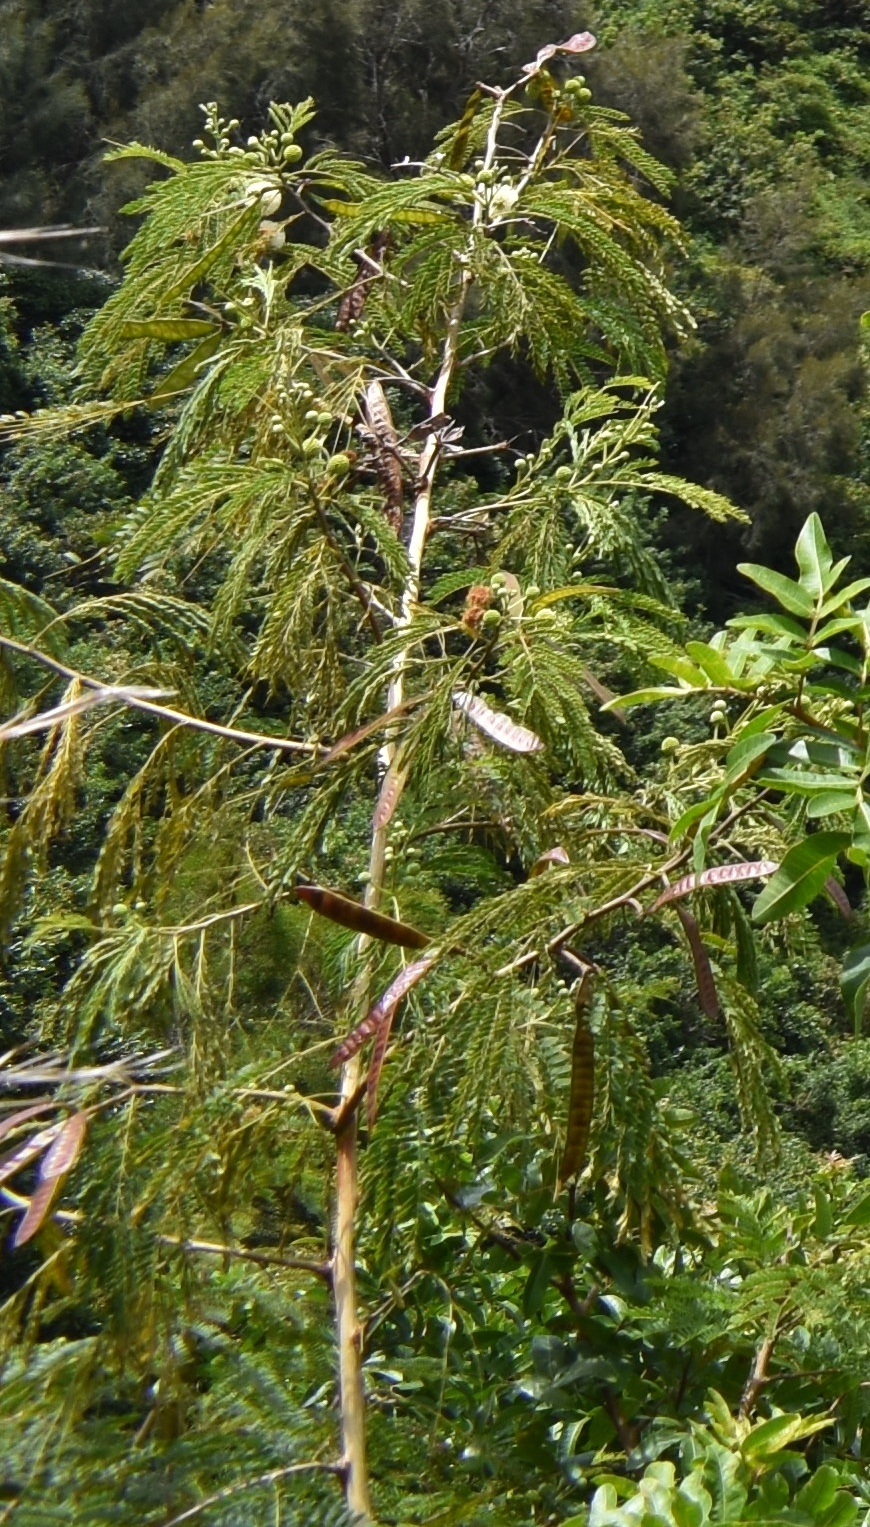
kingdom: Plantae
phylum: Tracheophyta
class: Magnoliopsida
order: Fabales
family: Fabaceae
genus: Leucaena
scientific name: Leucaena leucocephala
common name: White leadtree
